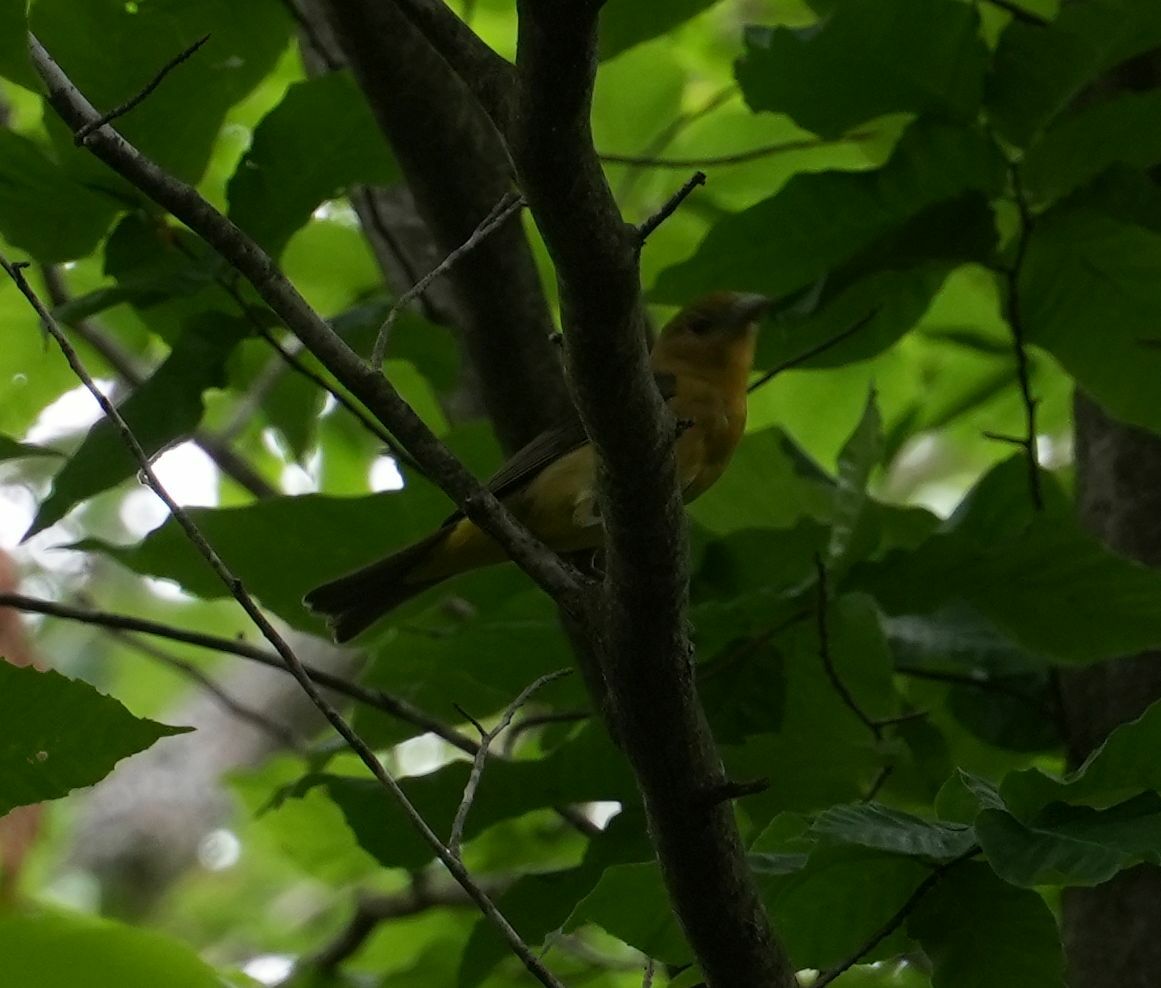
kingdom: Animalia
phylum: Chordata
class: Aves
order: Passeriformes
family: Cardinalidae
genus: Piranga
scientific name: Piranga olivacea
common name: Scarlet tanager
